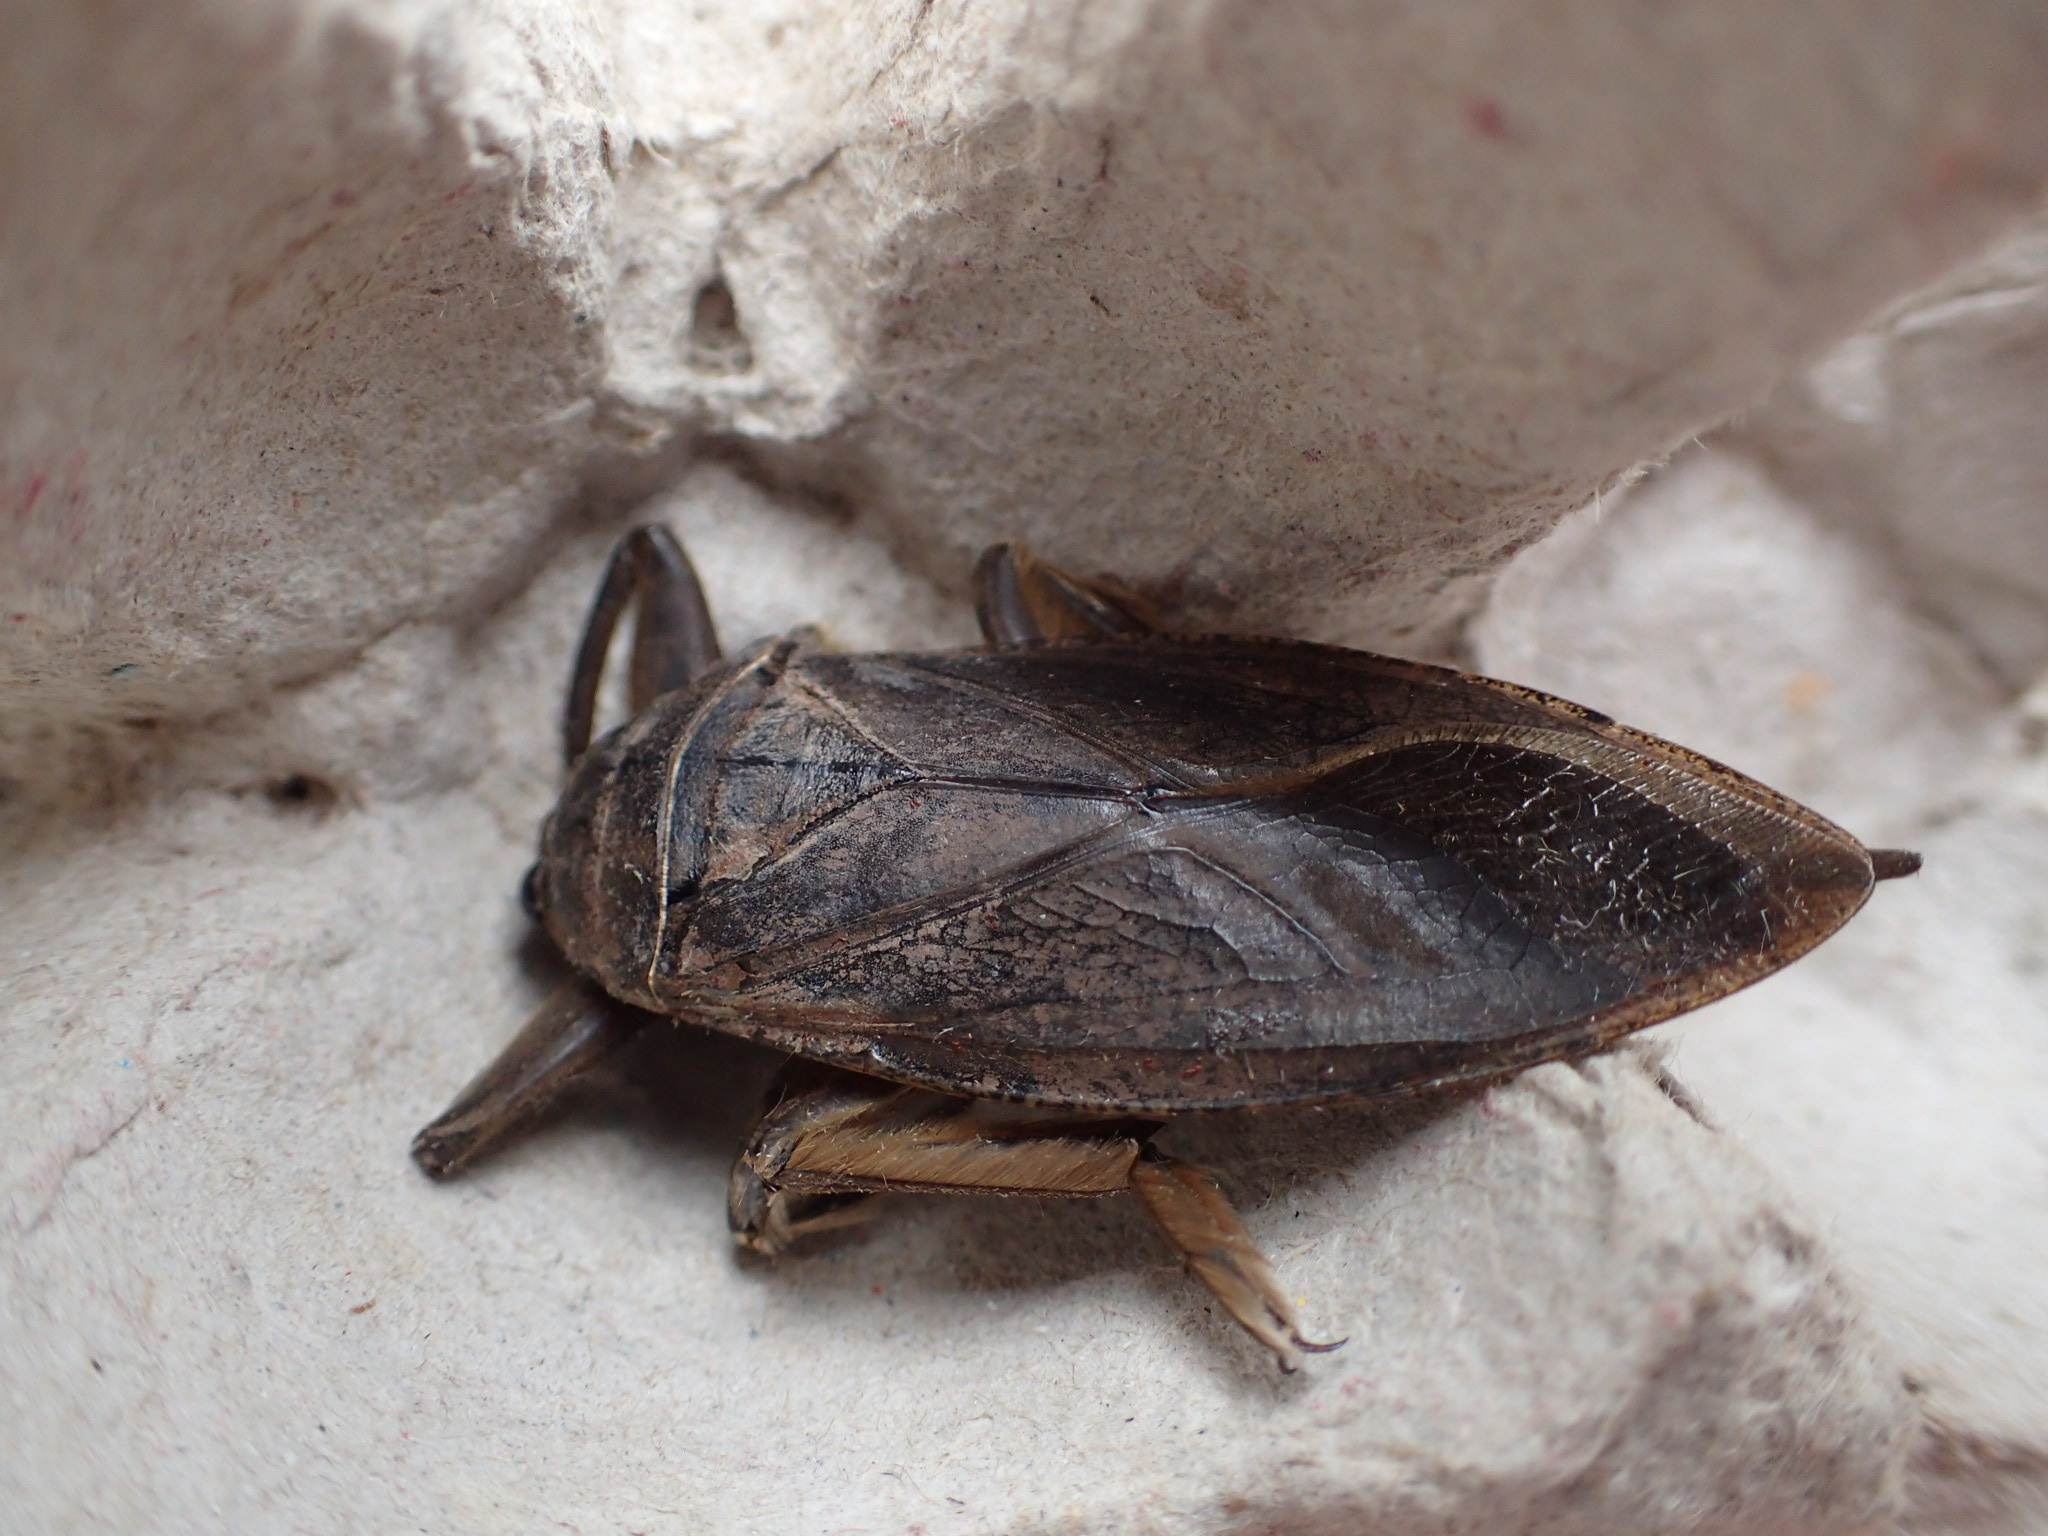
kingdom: Animalia
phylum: Arthropoda
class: Insecta
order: Hemiptera
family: Belostomatidae
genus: Lethocerus
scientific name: Lethocerus americanus
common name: Giant water bug
